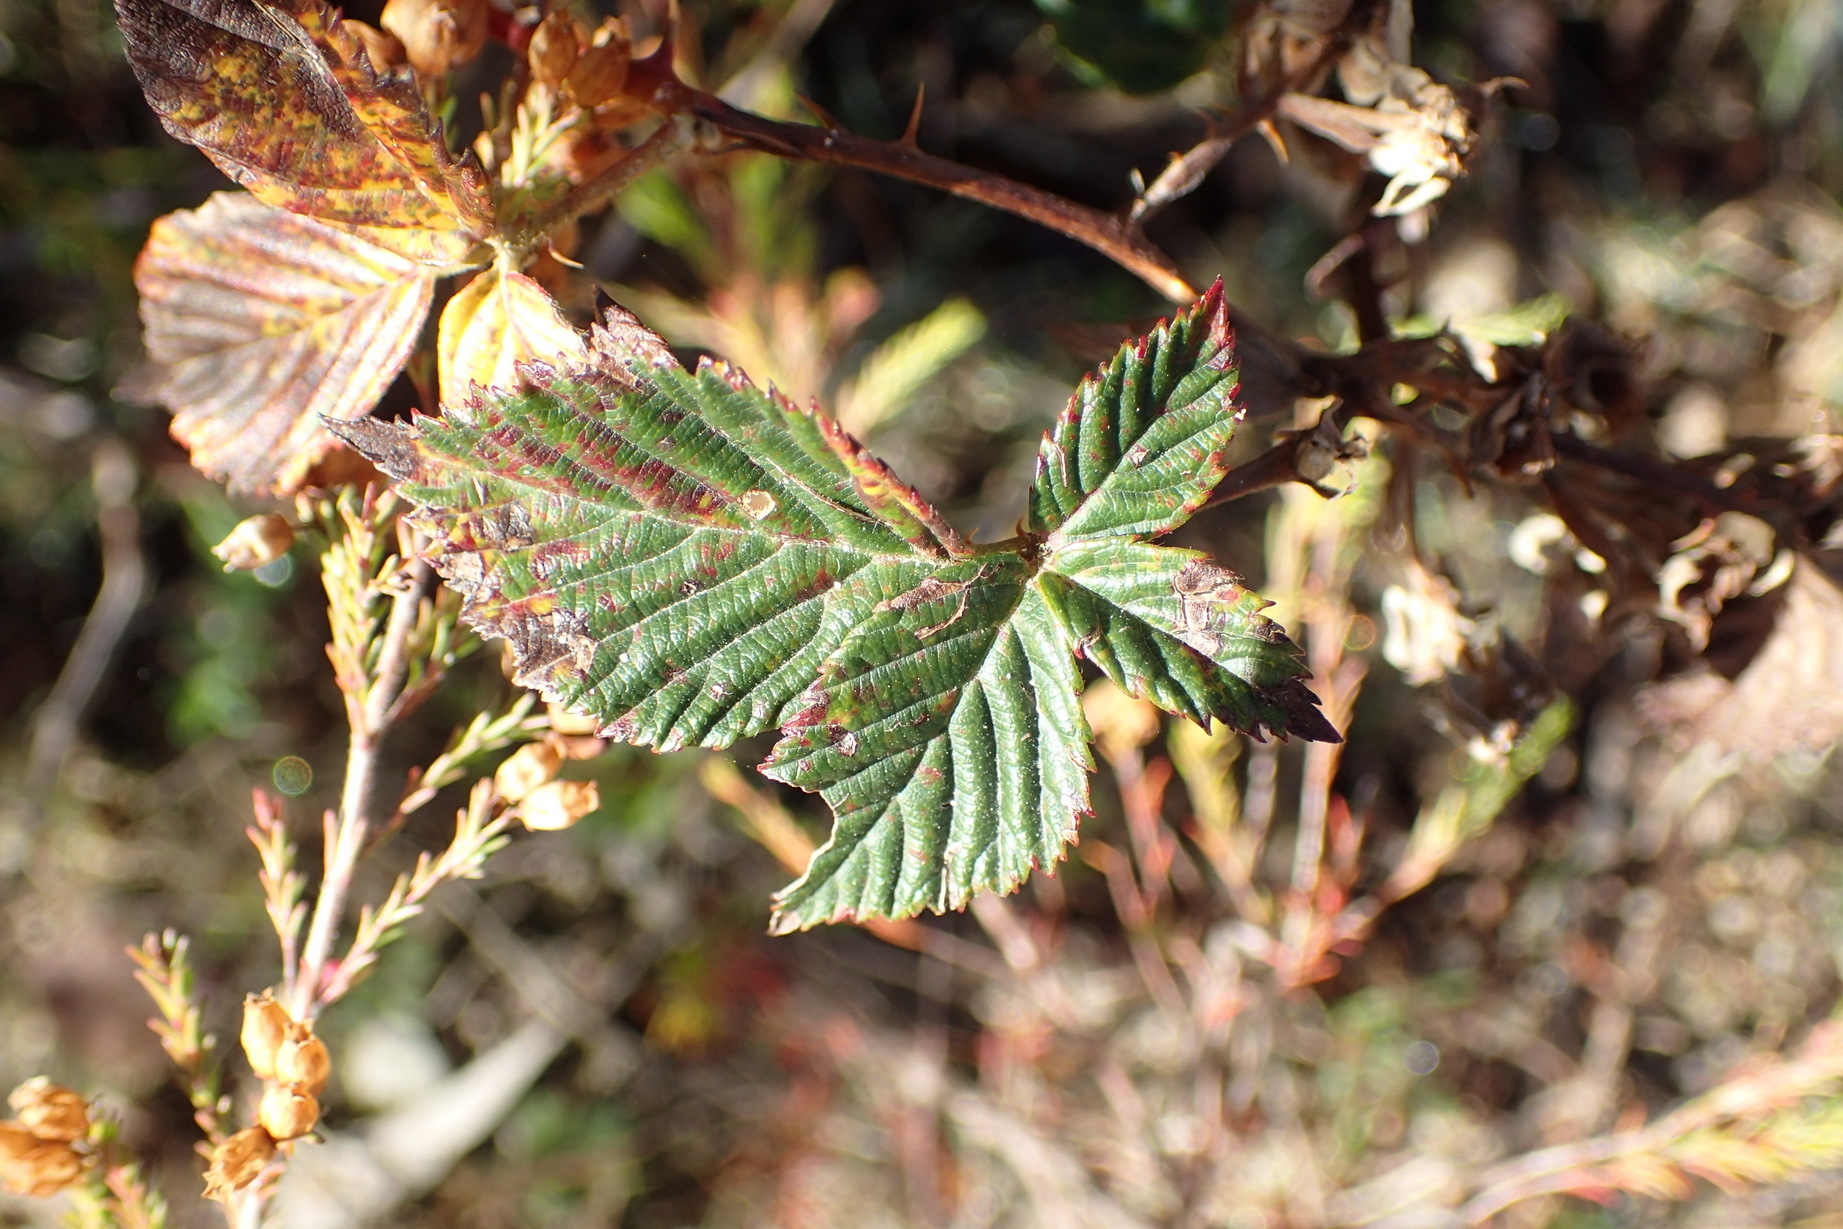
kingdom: Plantae
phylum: Tracheophyta
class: Magnoliopsida
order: Rosales
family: Rosaceae
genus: Rubus
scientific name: Rubus affinis
